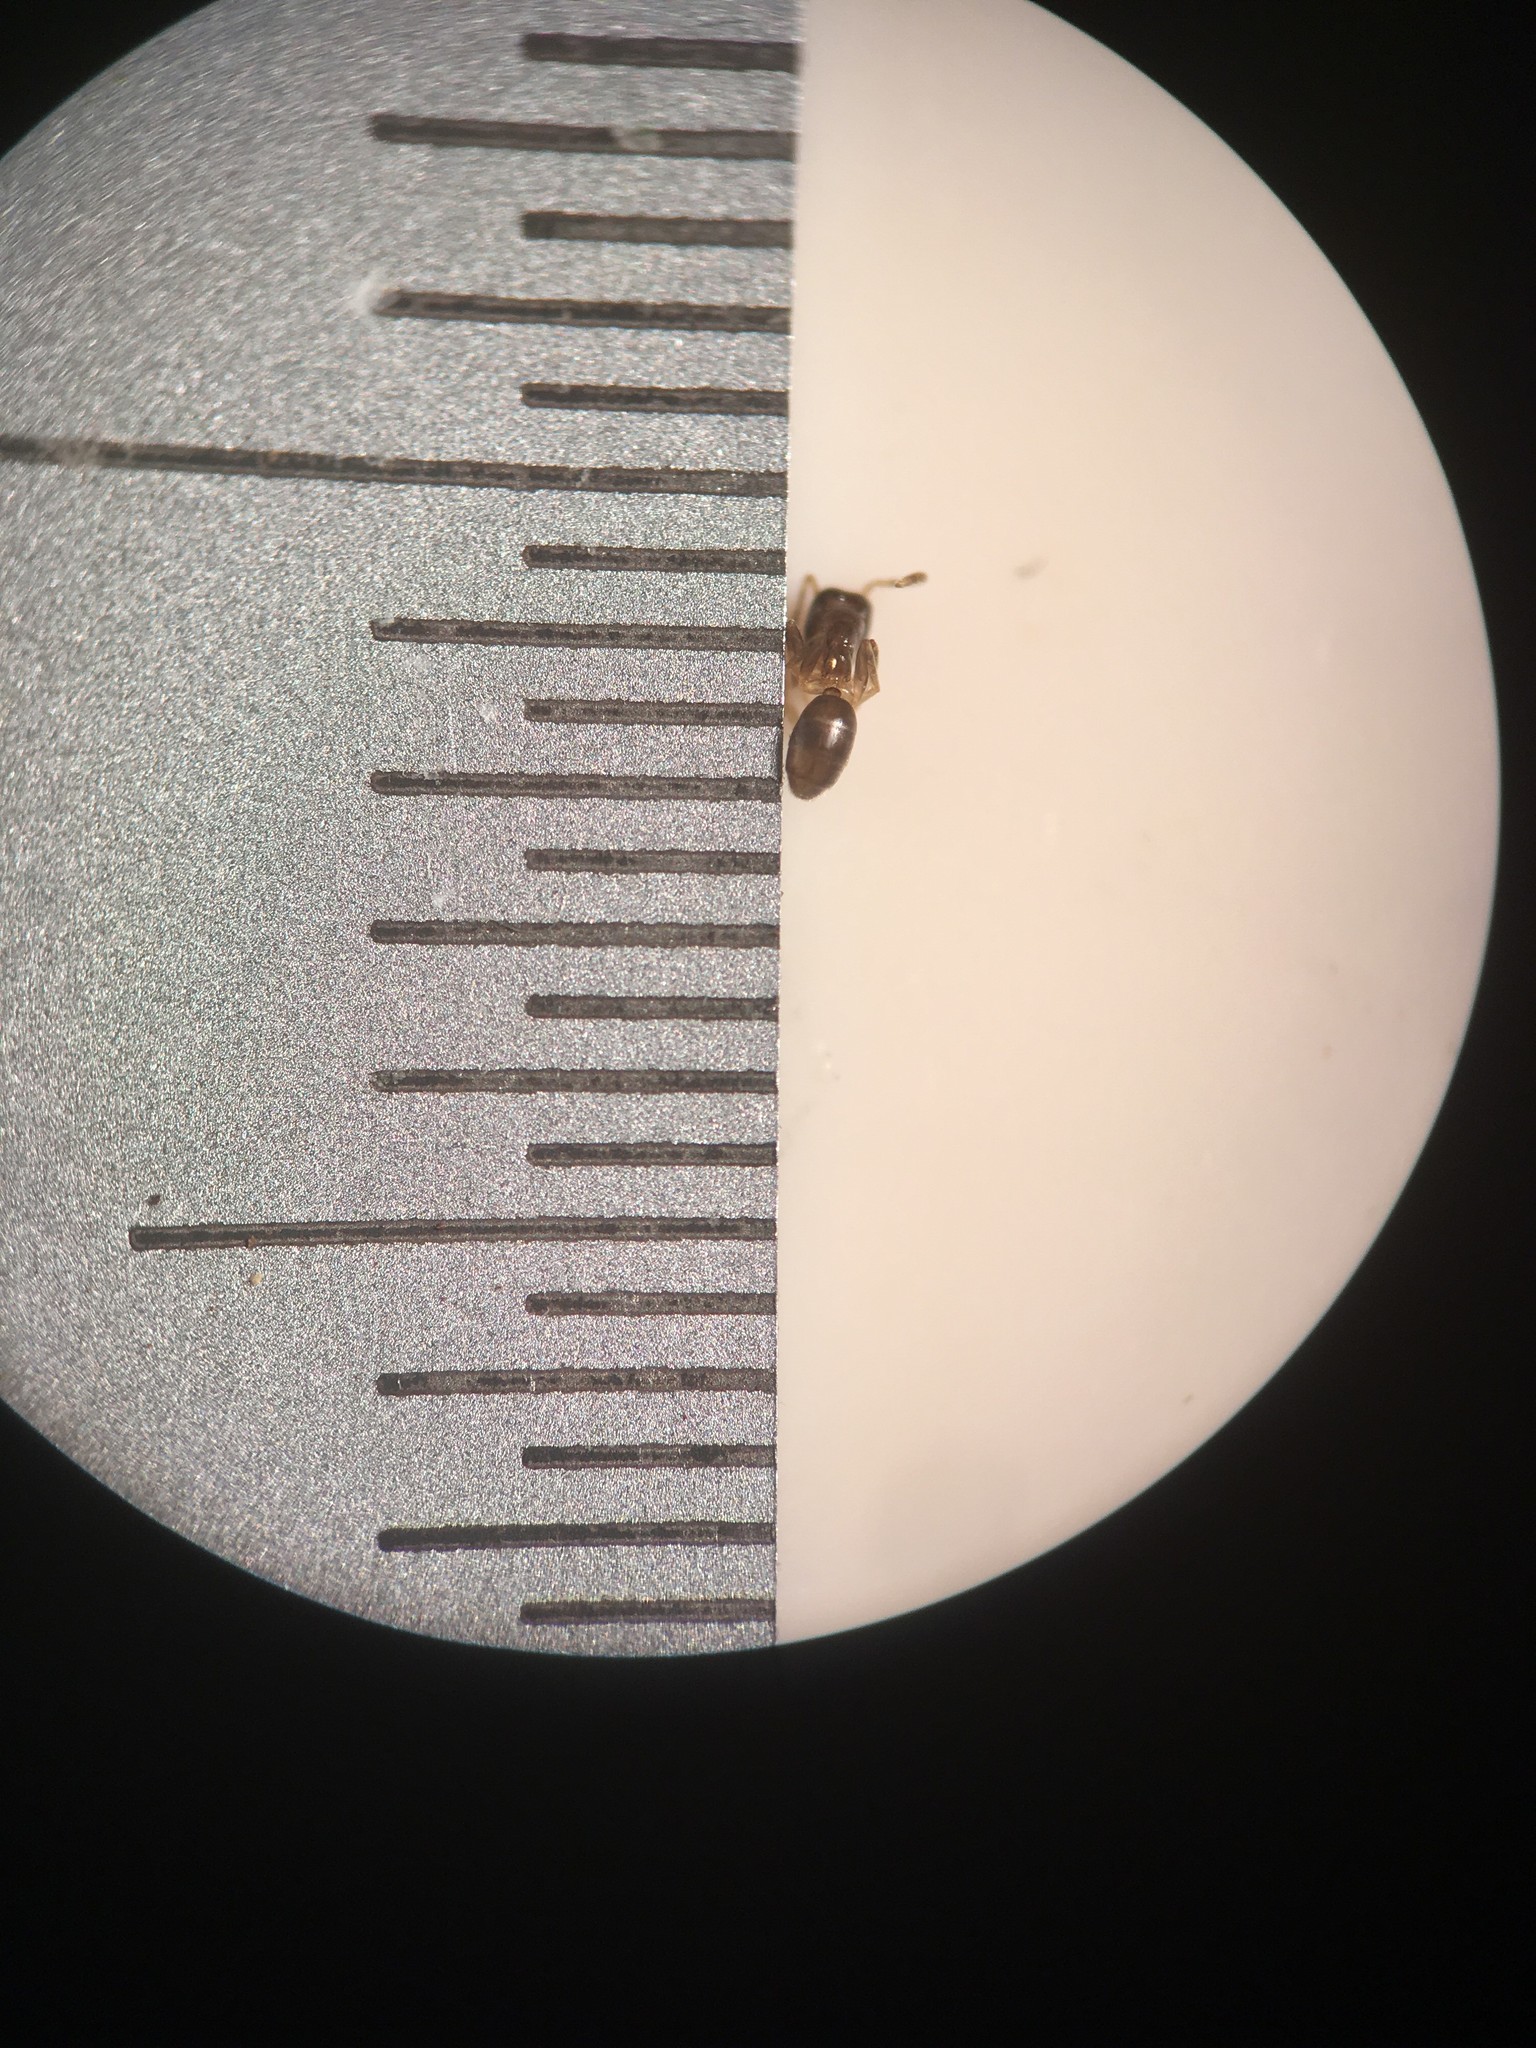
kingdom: Animalia
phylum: Arthropoda
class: Insecta
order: Hymenoptera
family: Formicidae
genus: Doleromyrma
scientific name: Doleromyrma darwiniana
